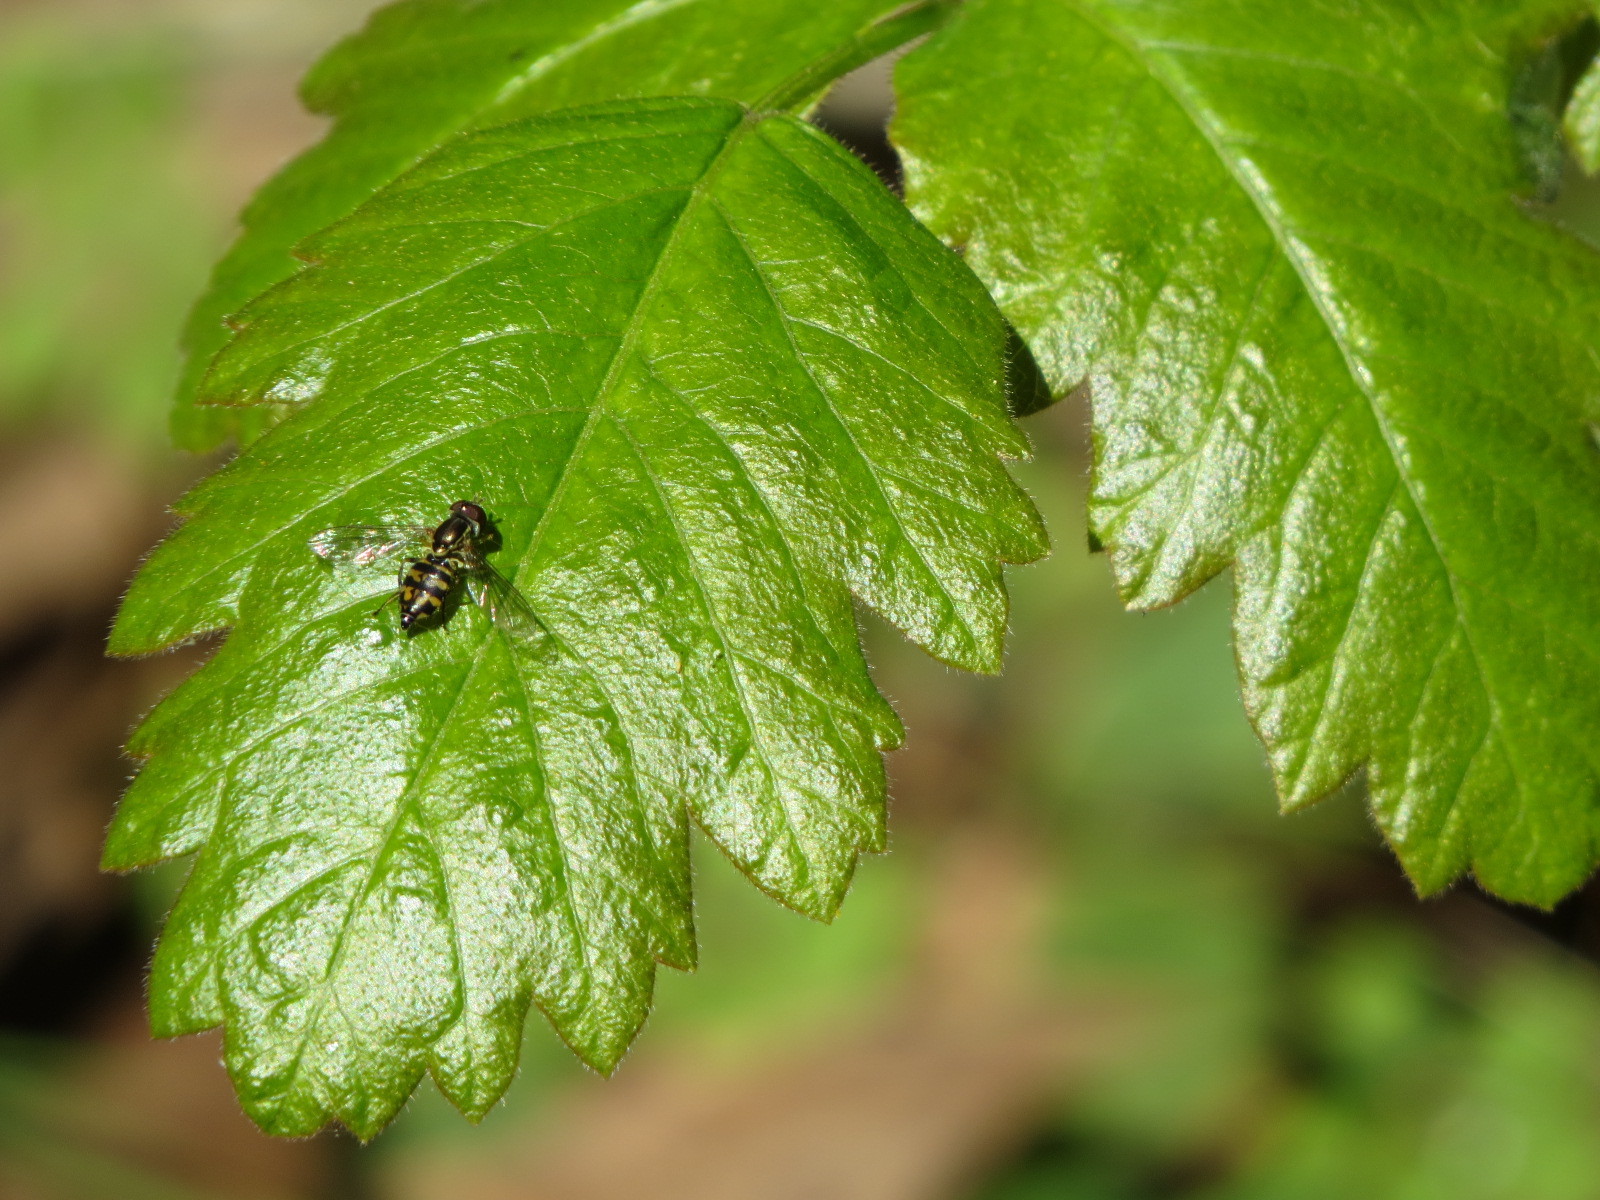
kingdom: Animalia
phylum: Arthropoda
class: Insecta
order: Diptera
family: Syrphidae
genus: Toxomerus
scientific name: Toxomerus occidentalis
